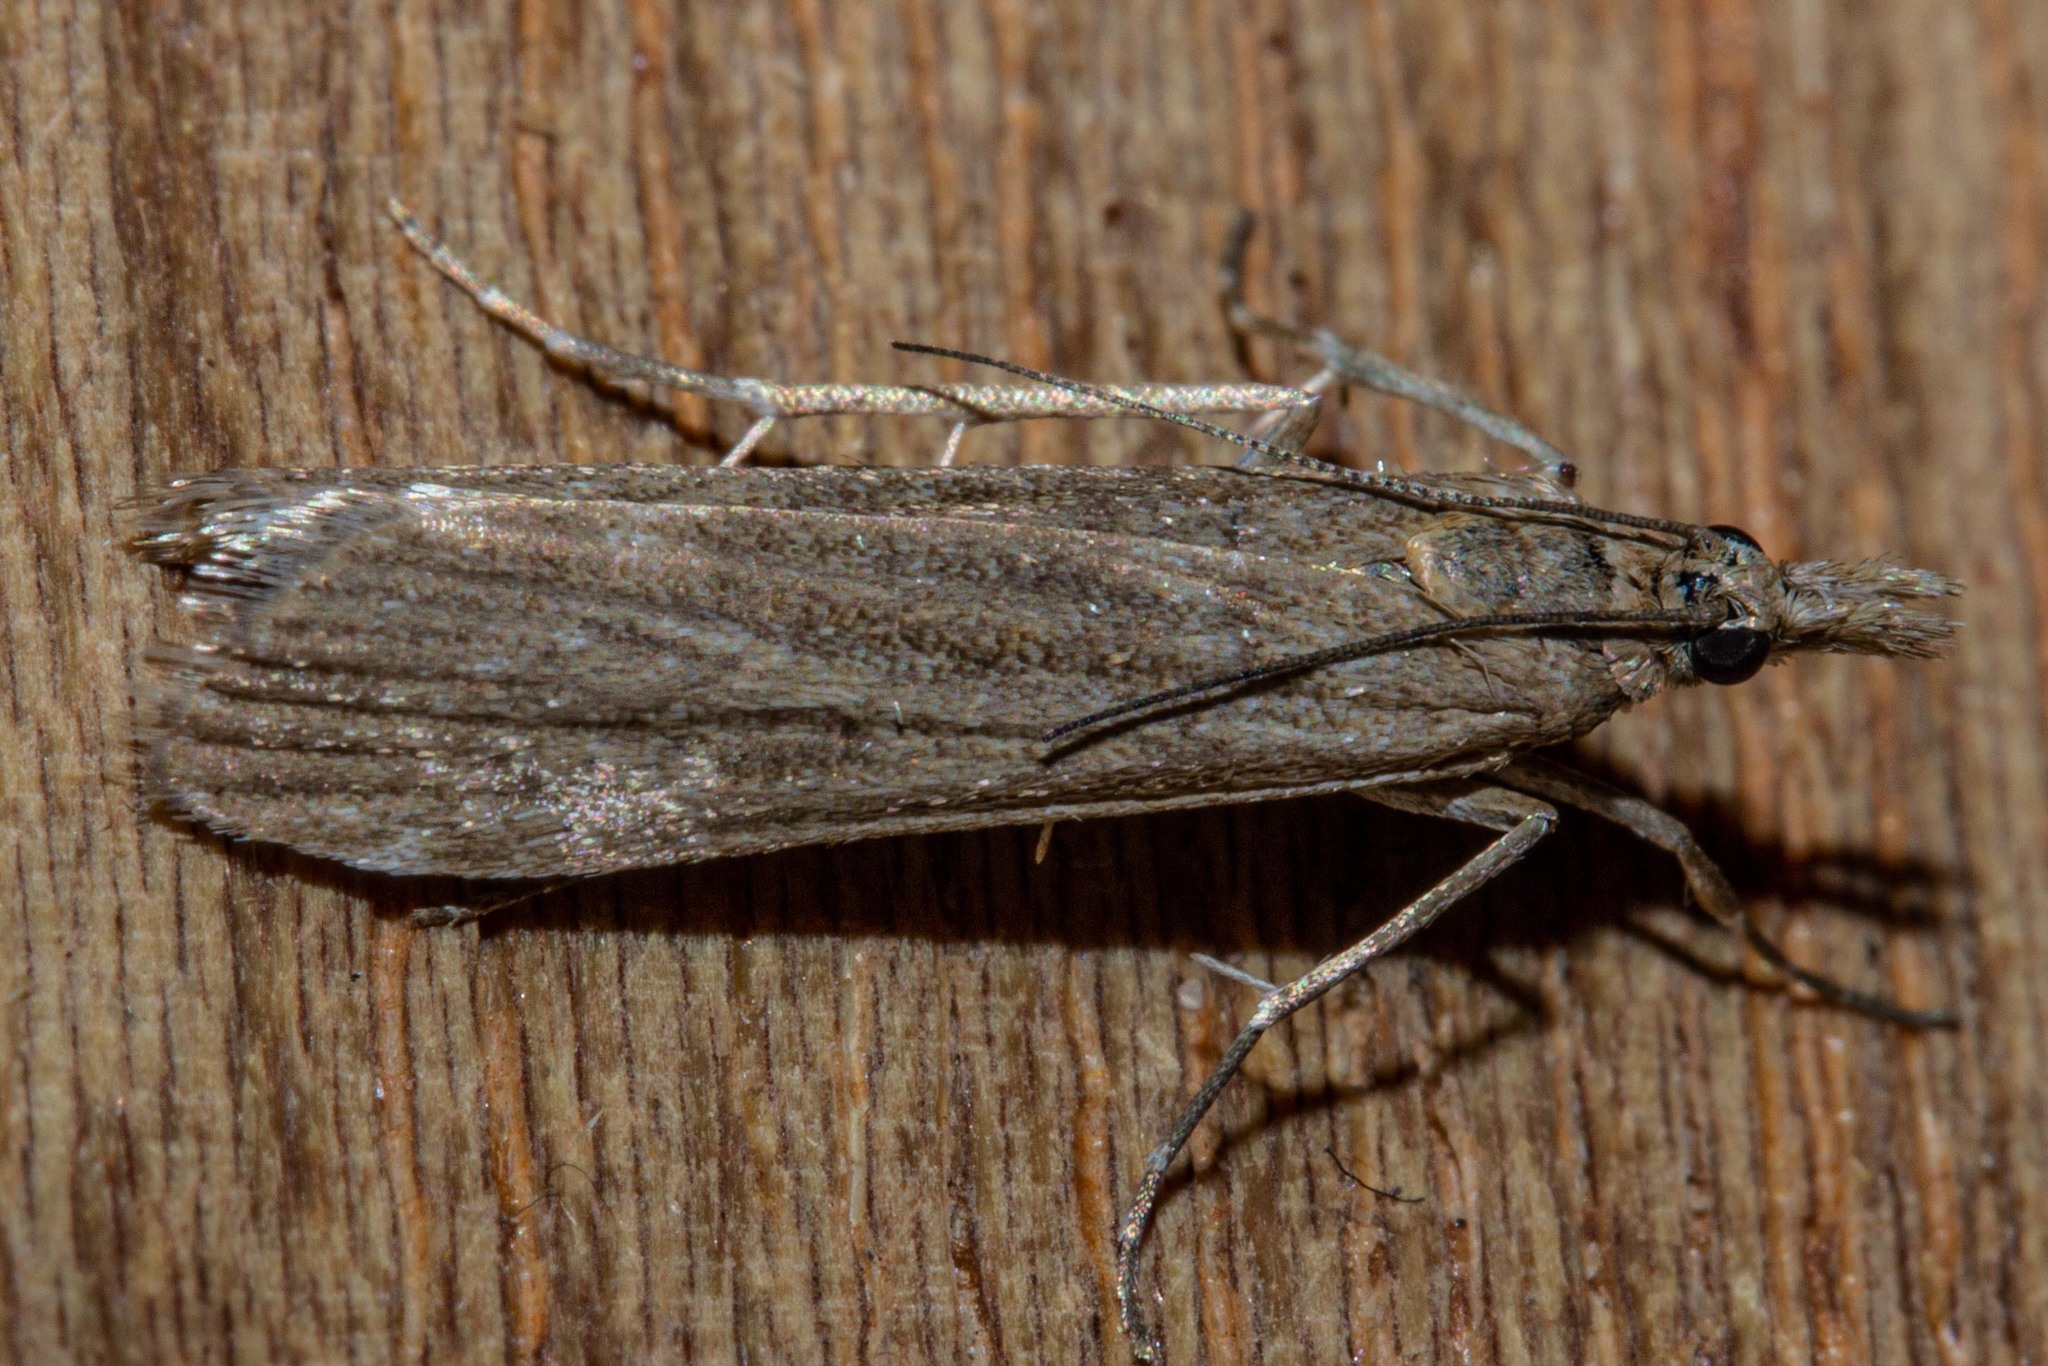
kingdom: Animalia
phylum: Arthropoda
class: Insecta
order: Lepidoptera
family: Crambidae
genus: Eudonia
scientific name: Eudonia leptalea
